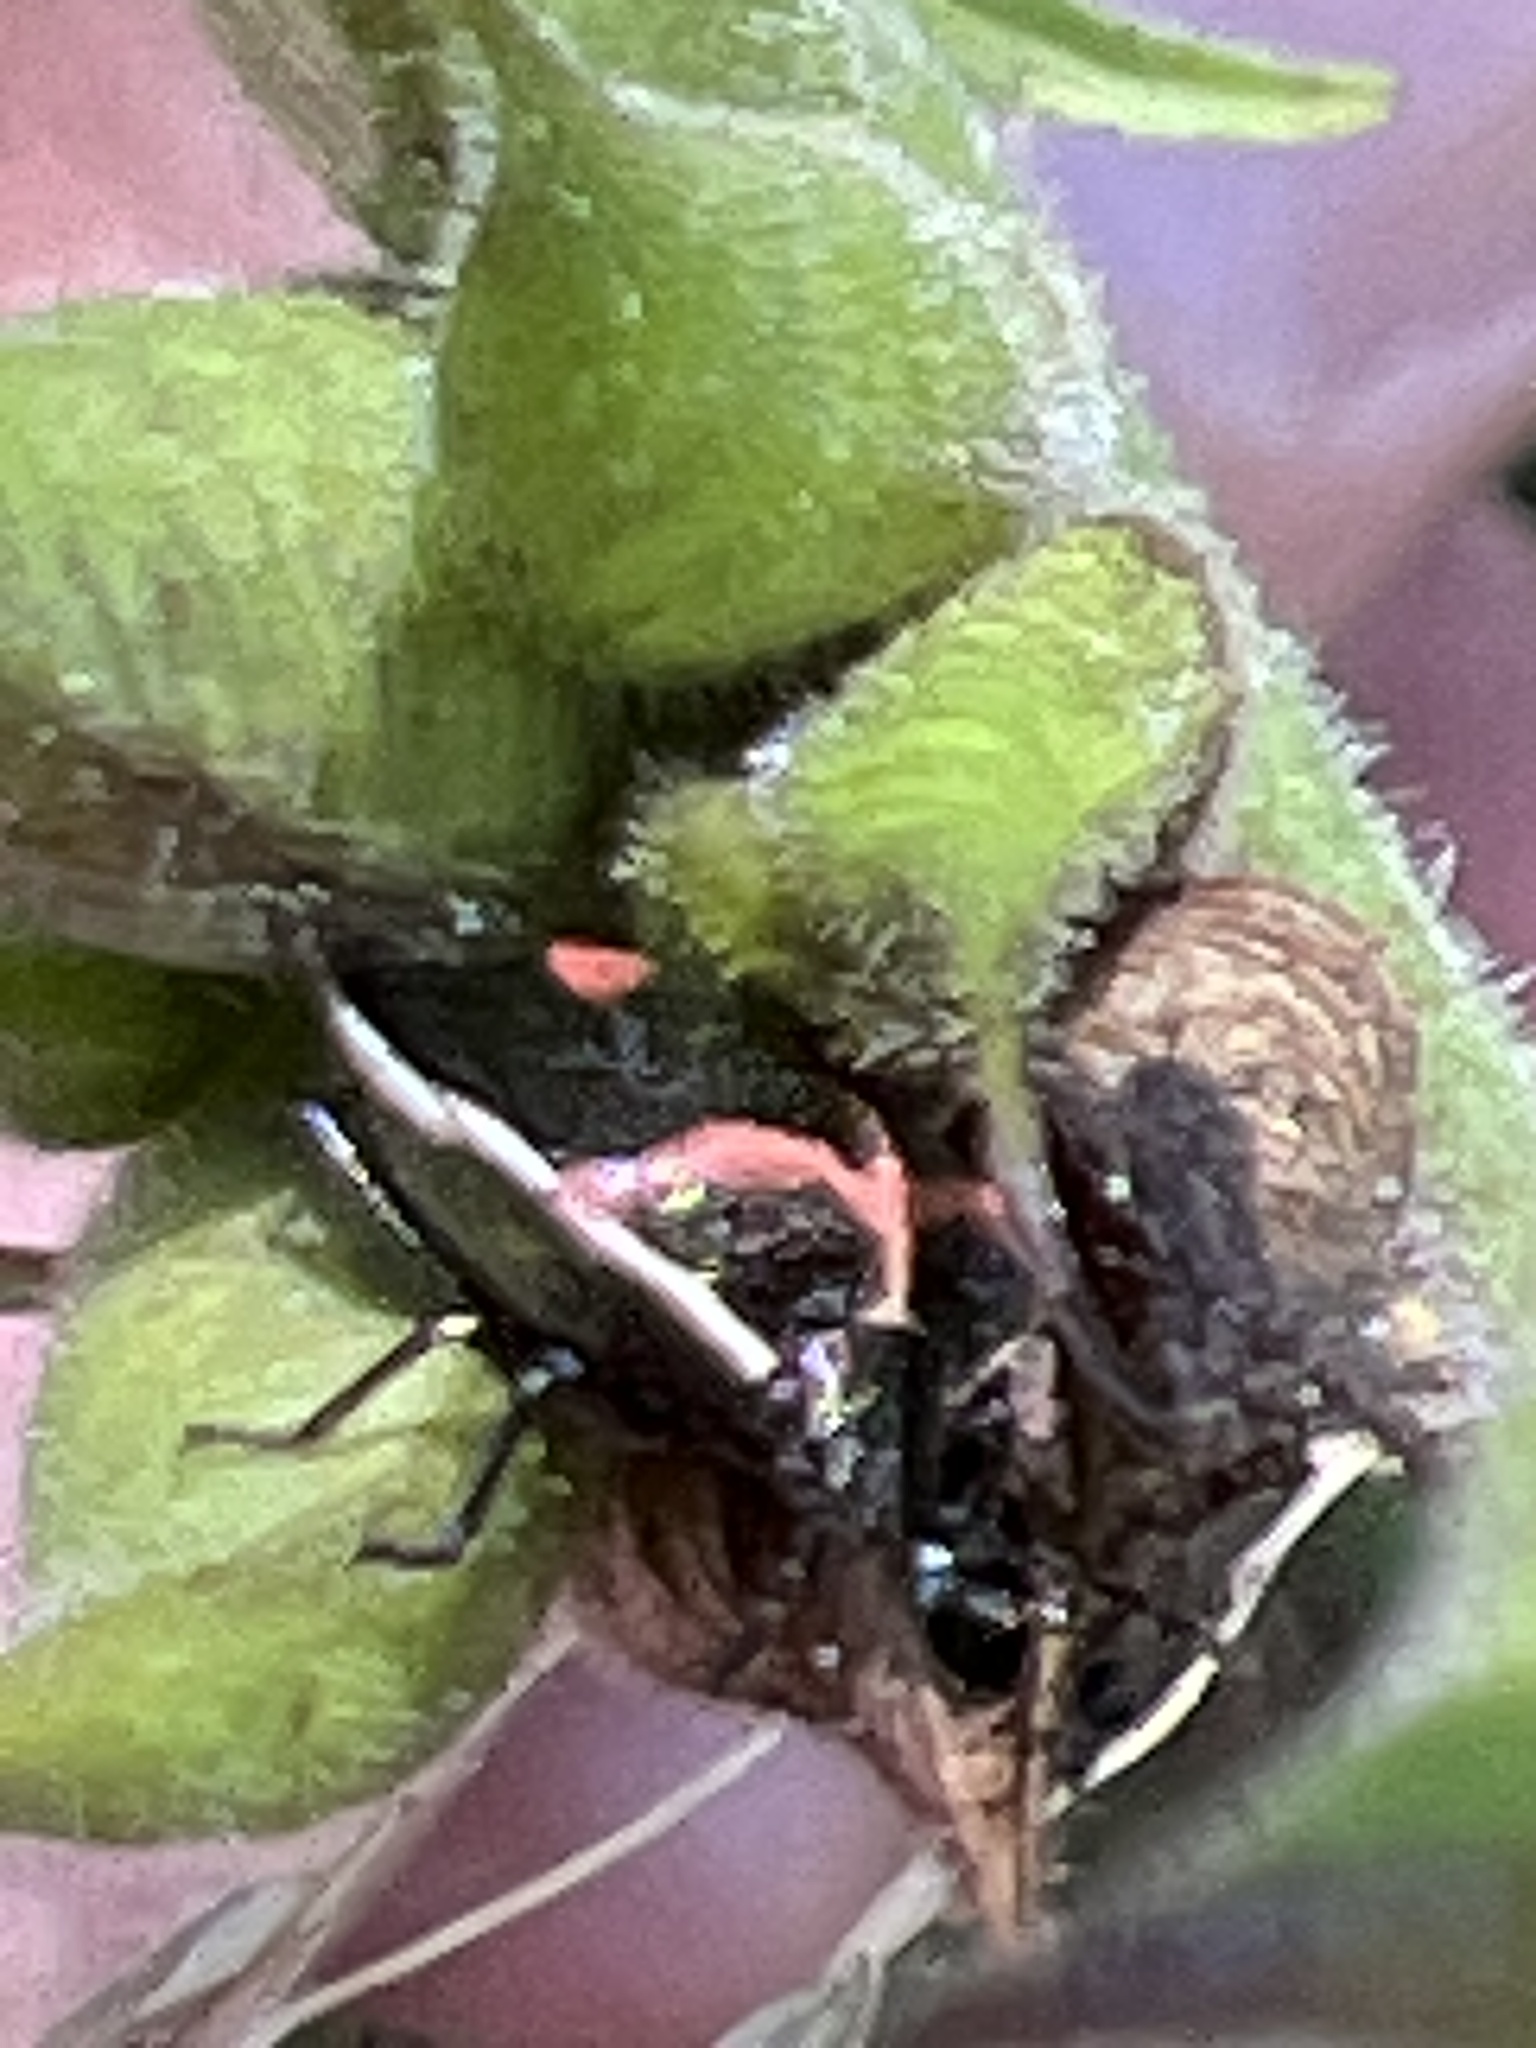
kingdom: Animalia
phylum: Arthropoda
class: Insecta
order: Hemiptera
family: Pentatomidae
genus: Cosmopepla
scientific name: Cosmopepla lintneriana
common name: Twice-stabbed stink bug
